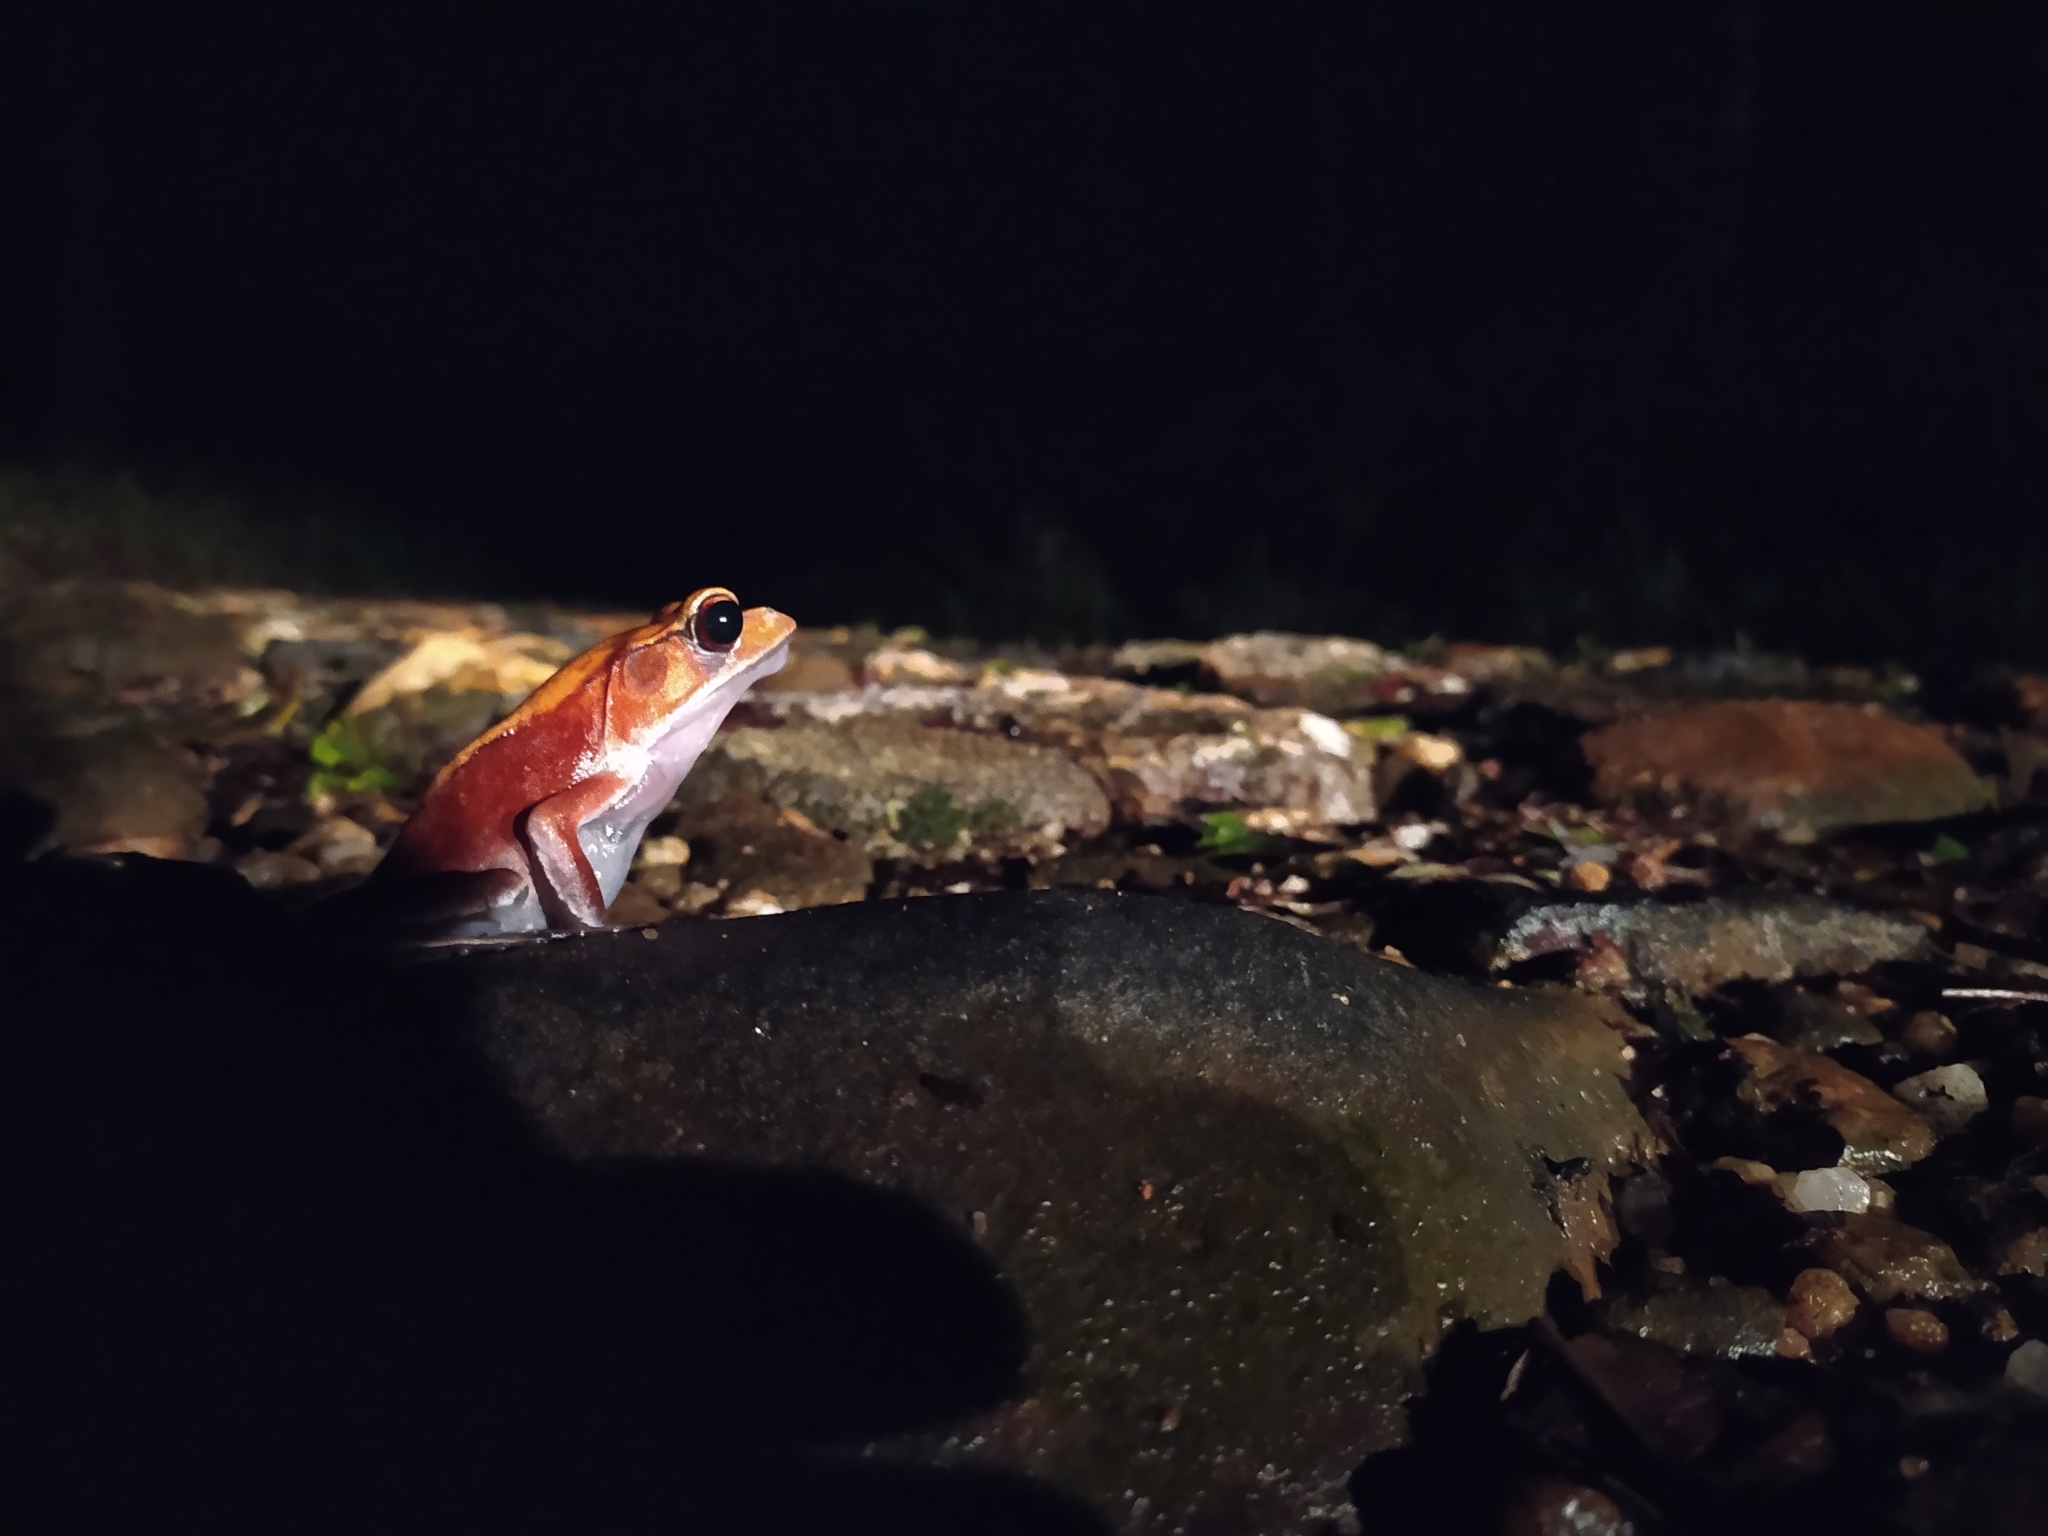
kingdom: Animalia
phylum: Chordata
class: Amphibia
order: Anura
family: Ranidae
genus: Clinotarsus
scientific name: Clinotarsus curtipes
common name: Bicoloured frog
